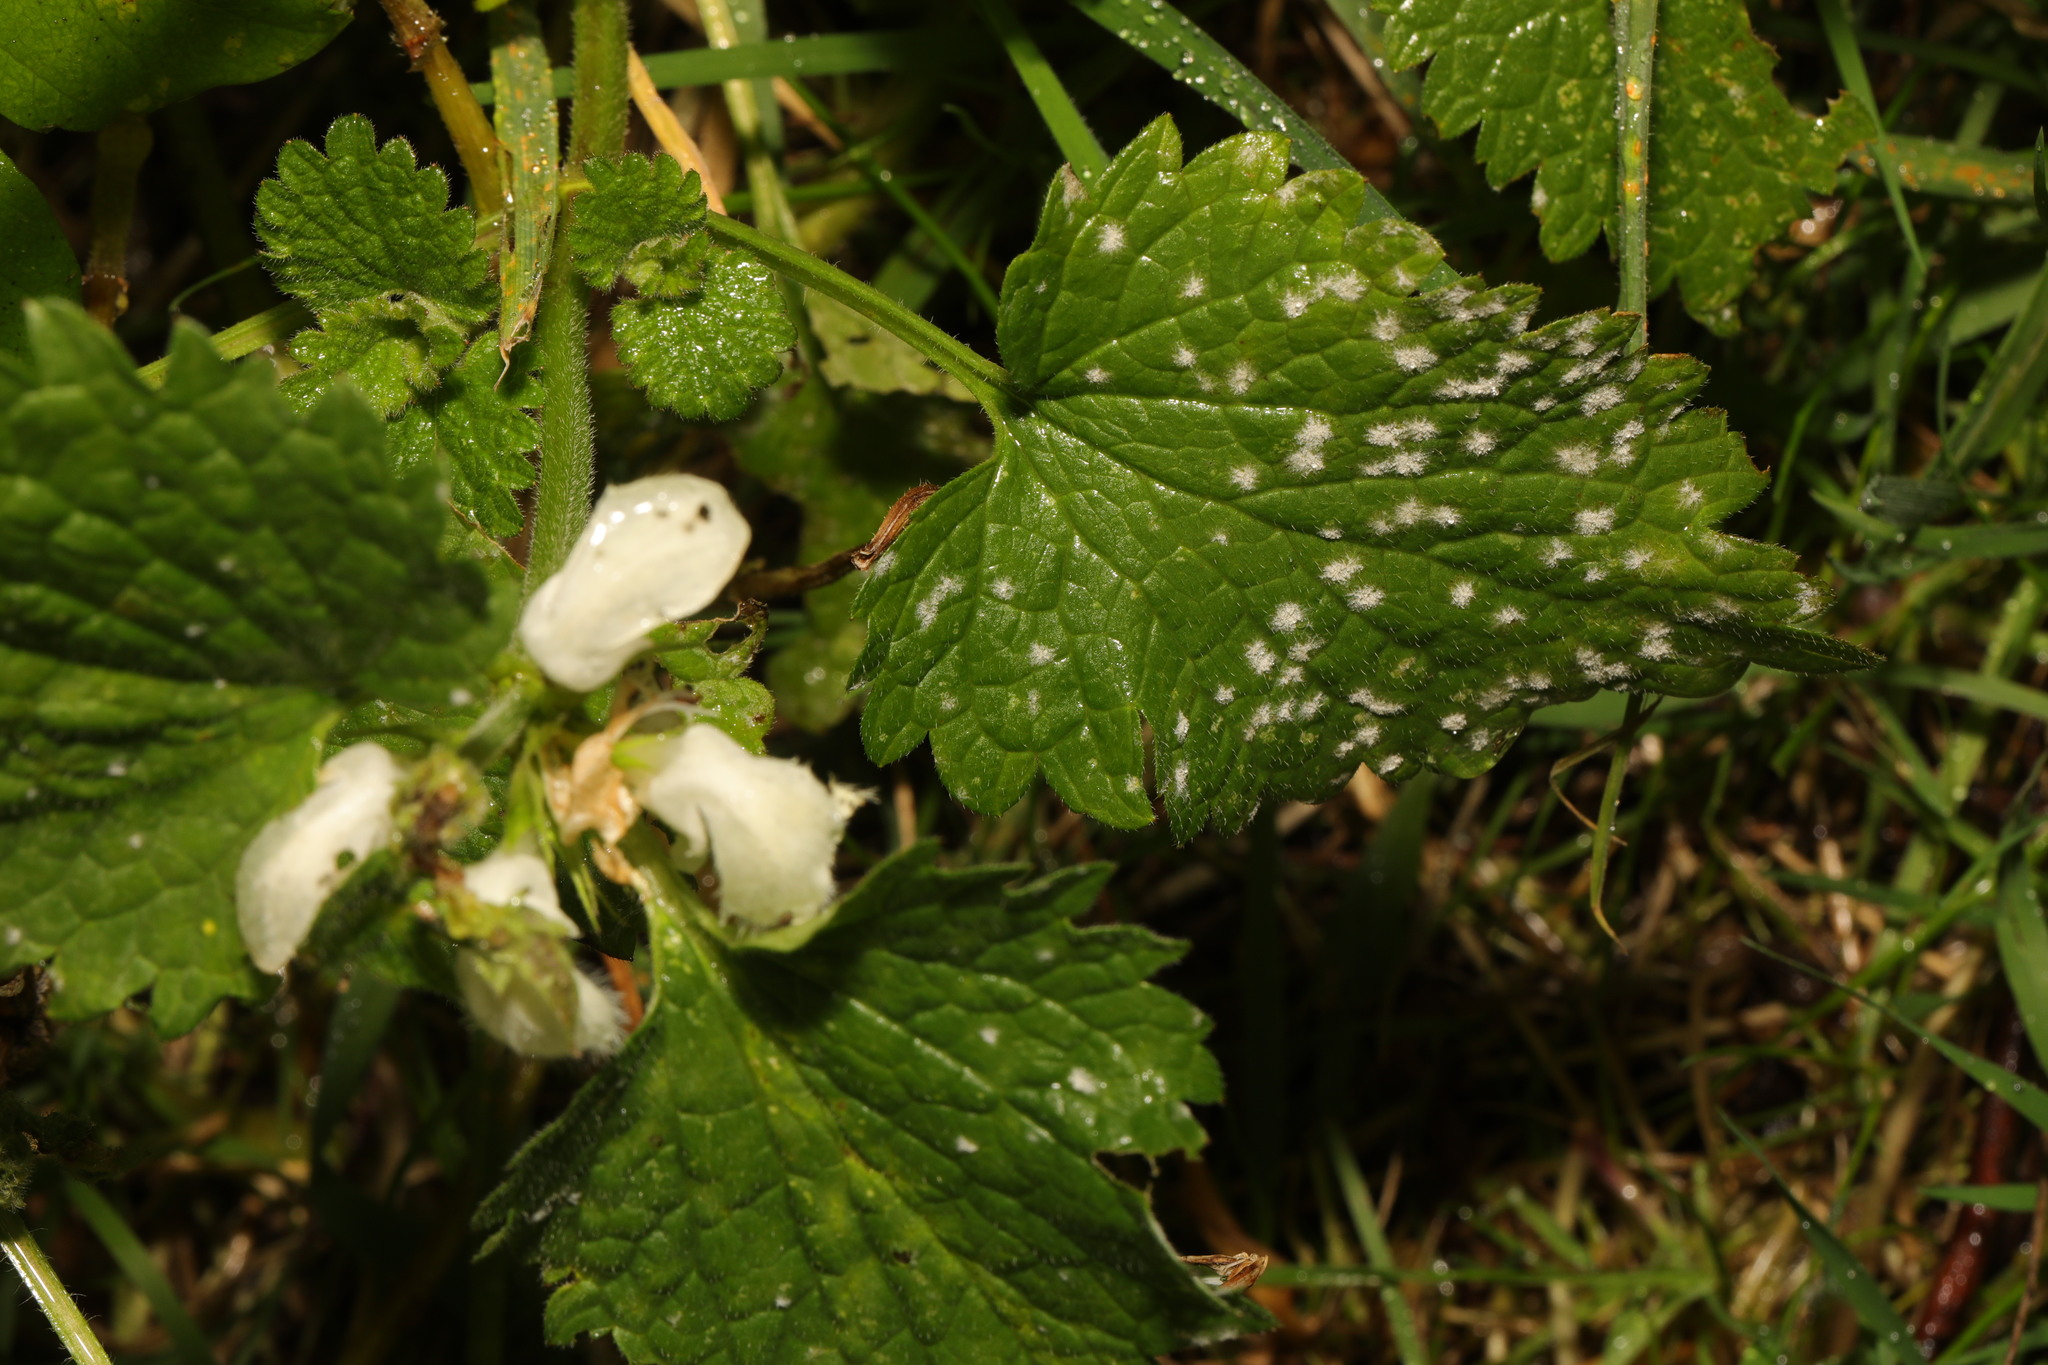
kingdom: Plantae
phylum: Tracheophyta
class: Magnoliopsida
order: Lamiales
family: Lamiaceae
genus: Lamium
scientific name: Lamium album
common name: White dead-nettle
